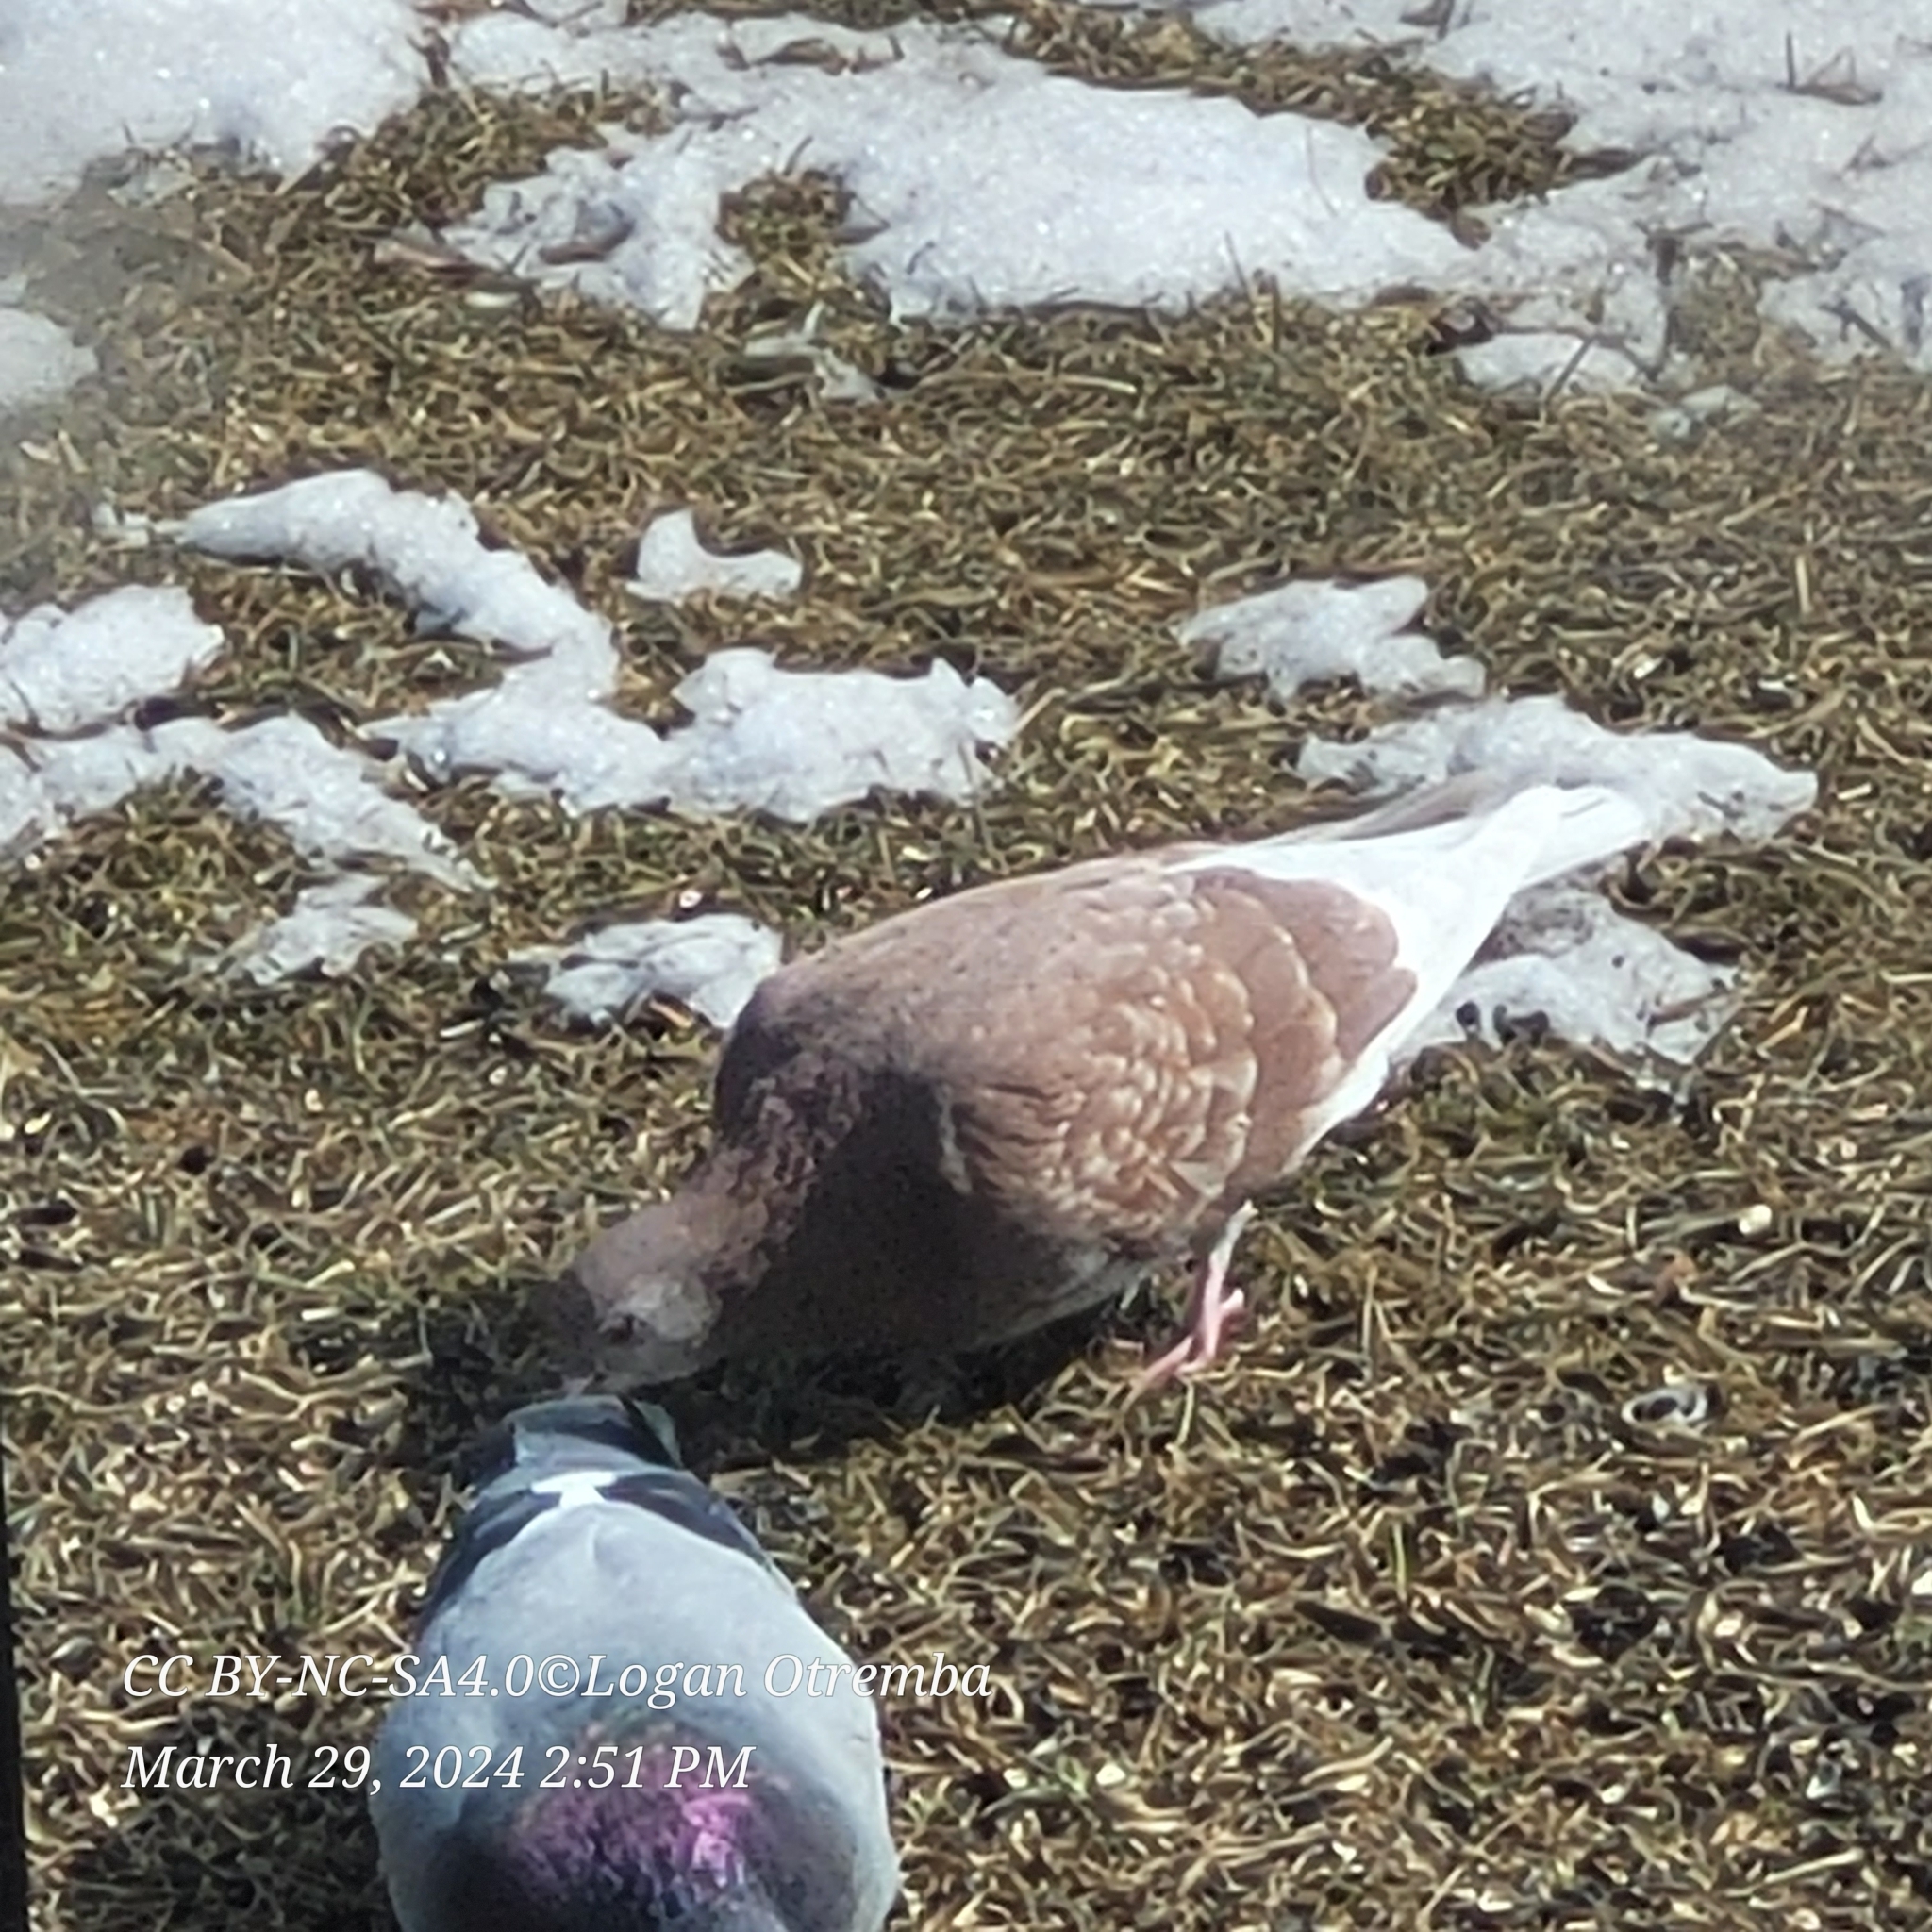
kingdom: Animalia
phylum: Chordata
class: Aves
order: Columbiformes
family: Columbidae
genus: Columba
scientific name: Columba livia
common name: Rock pigeon
